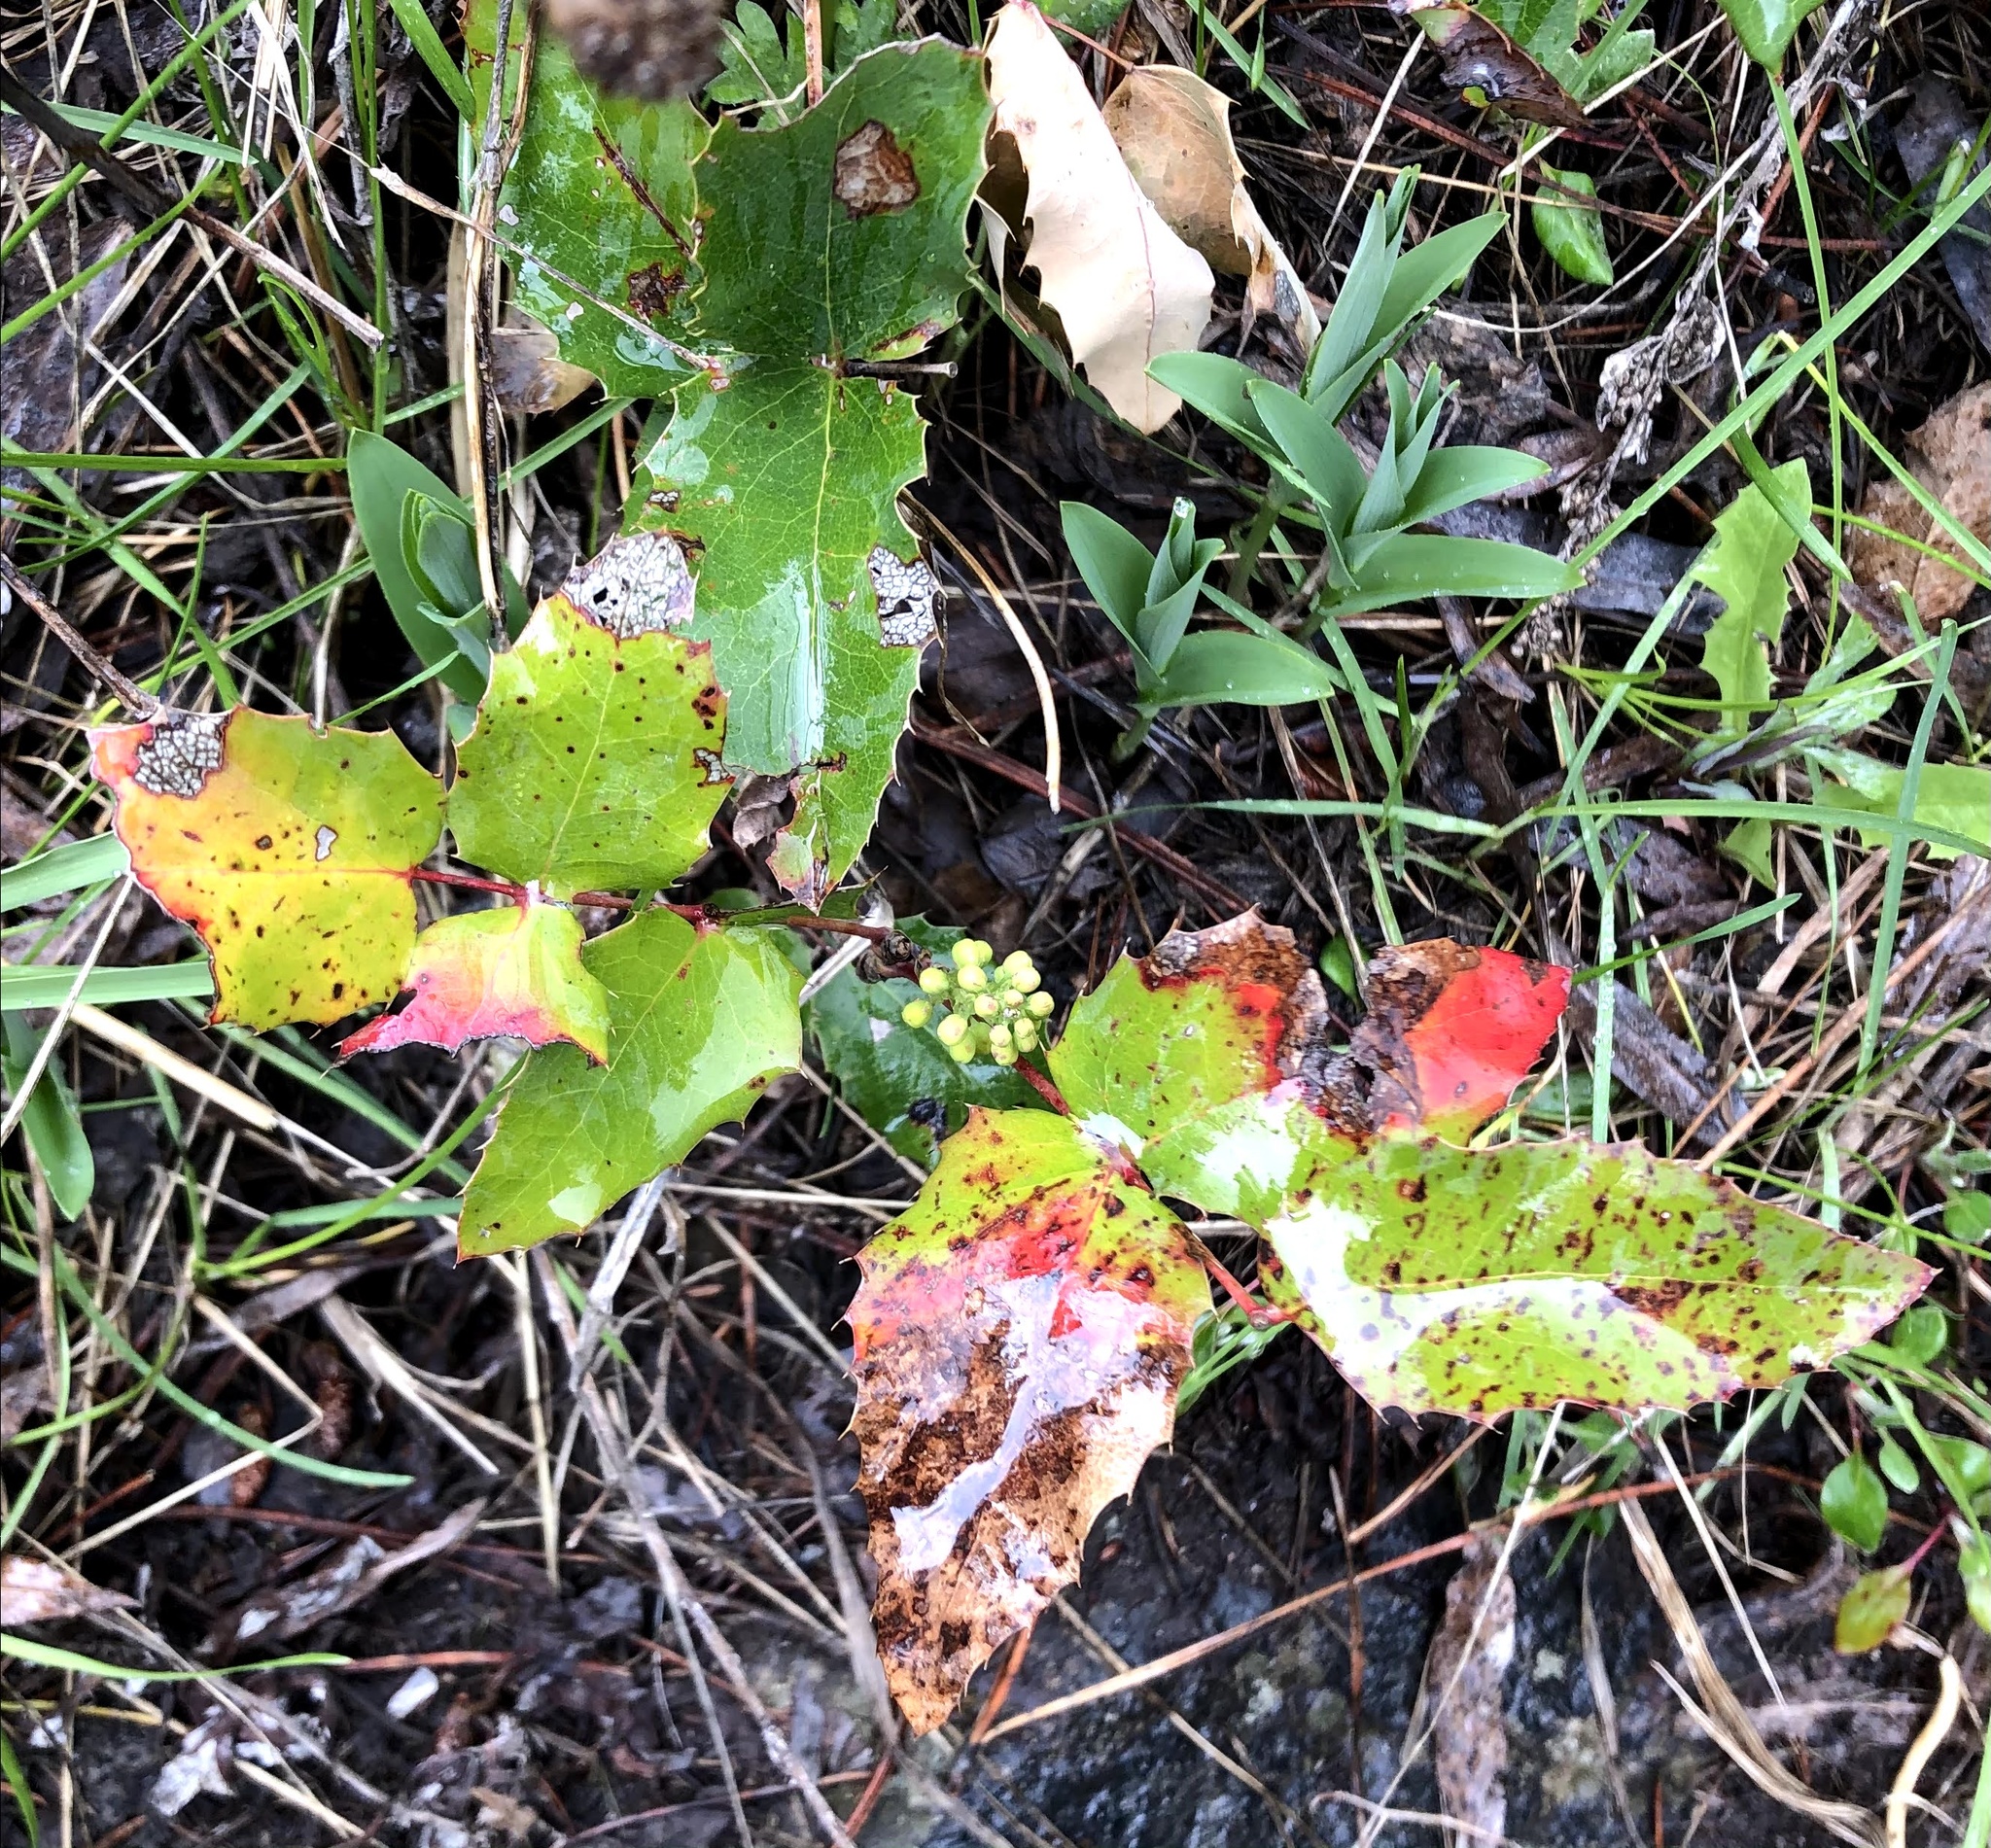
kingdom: Plantae
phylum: Tracheophyta
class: Magnoliopsida
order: Ranunculales
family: Berberidaceae
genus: Mahonia
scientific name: Mahonia repens
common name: Creeping oregon-grape
